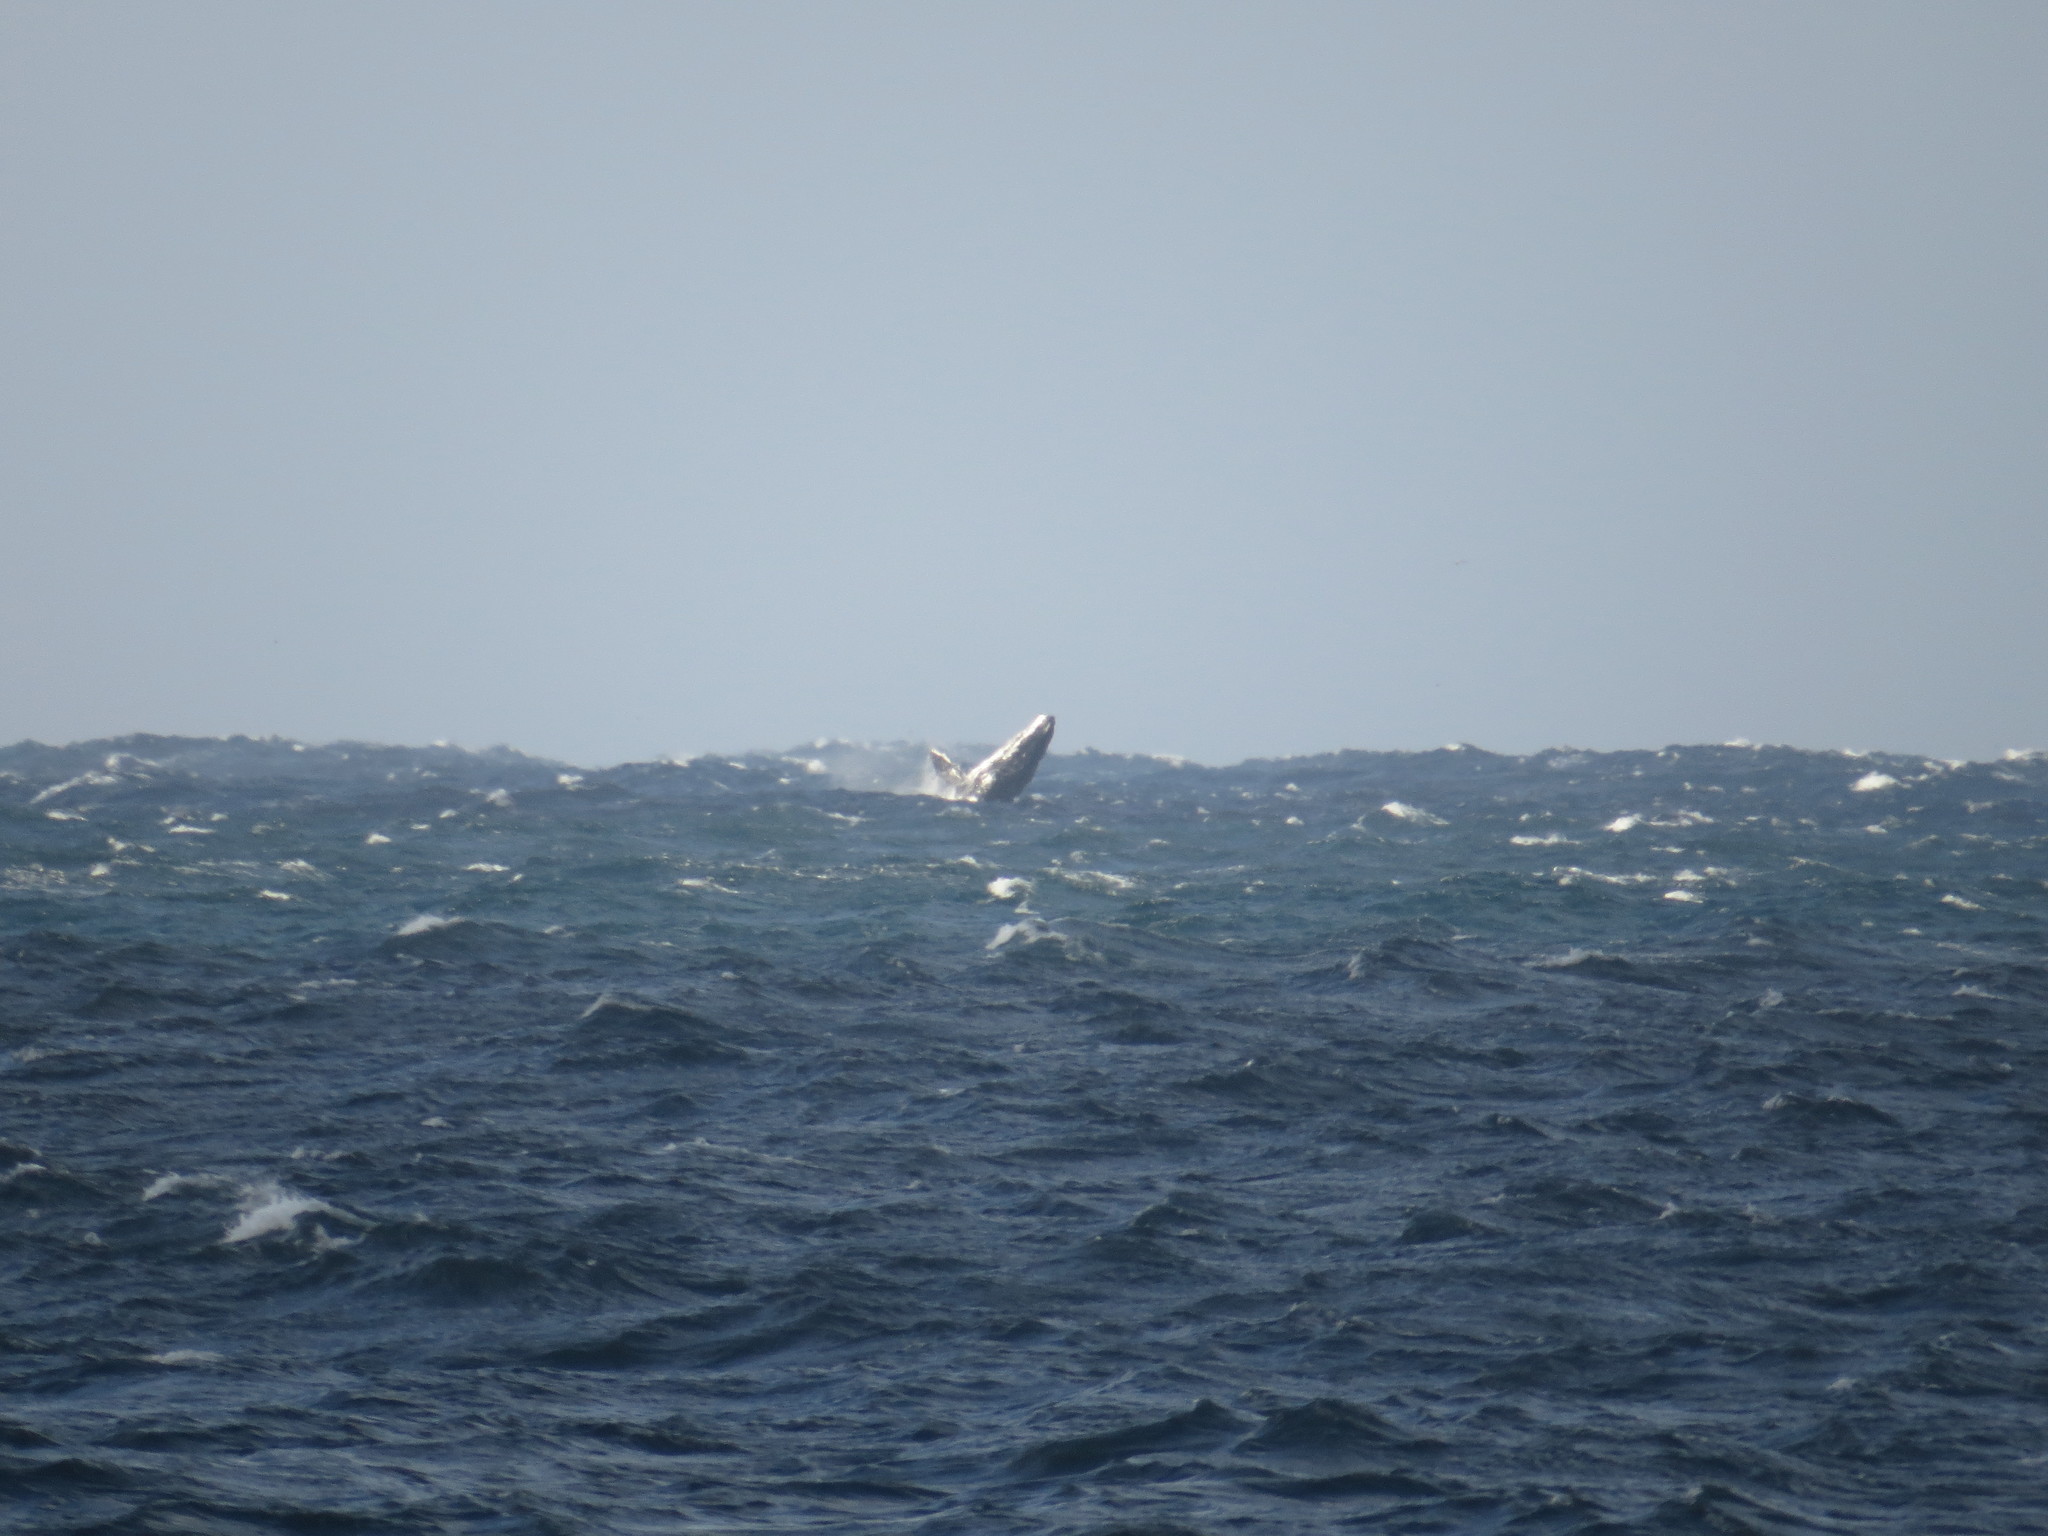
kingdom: Animalia
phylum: Chordata
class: Mammalia
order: Cetacea
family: Balaenopteridae
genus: Megaptera
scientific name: Megaptera novaeangliae
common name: Humpback whale
